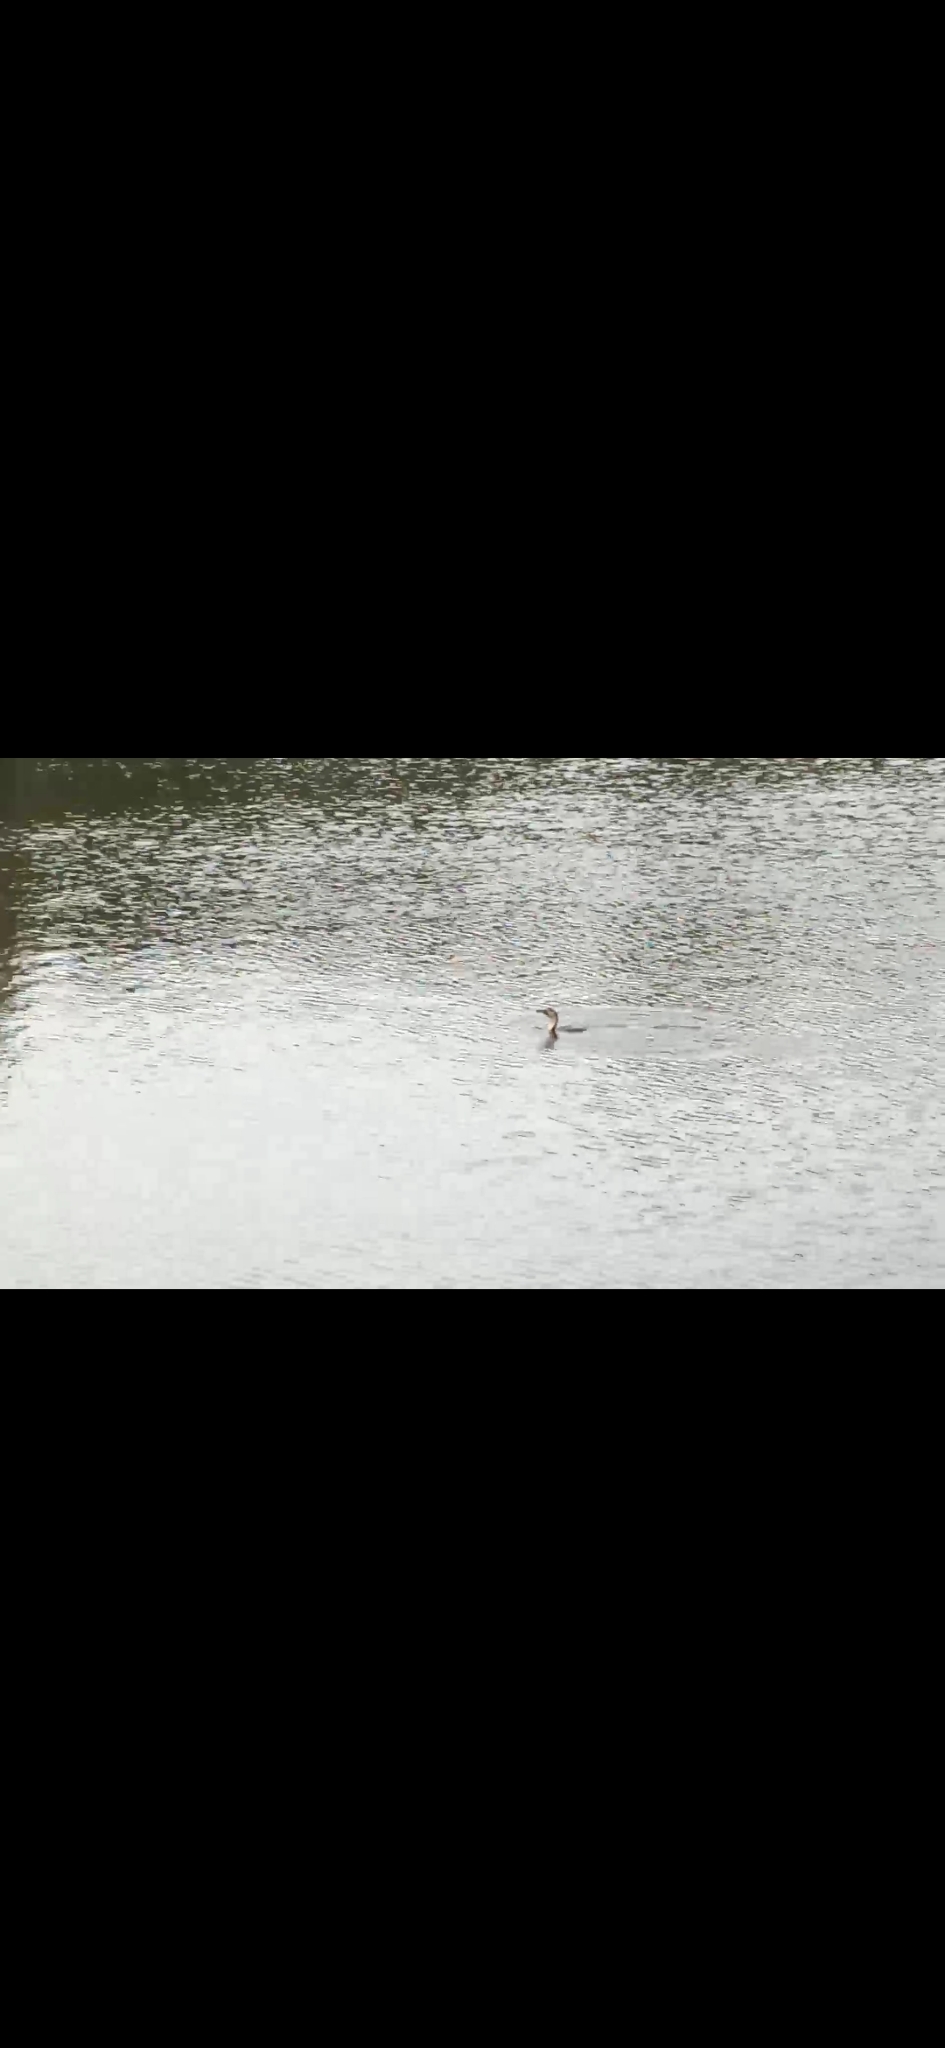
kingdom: Animalia
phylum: Chordata
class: Aves
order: Suliformes
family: Phalacrocoracidae
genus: Microcarbo
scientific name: Microcarbo melanoleucos
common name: Little pied cormorant
